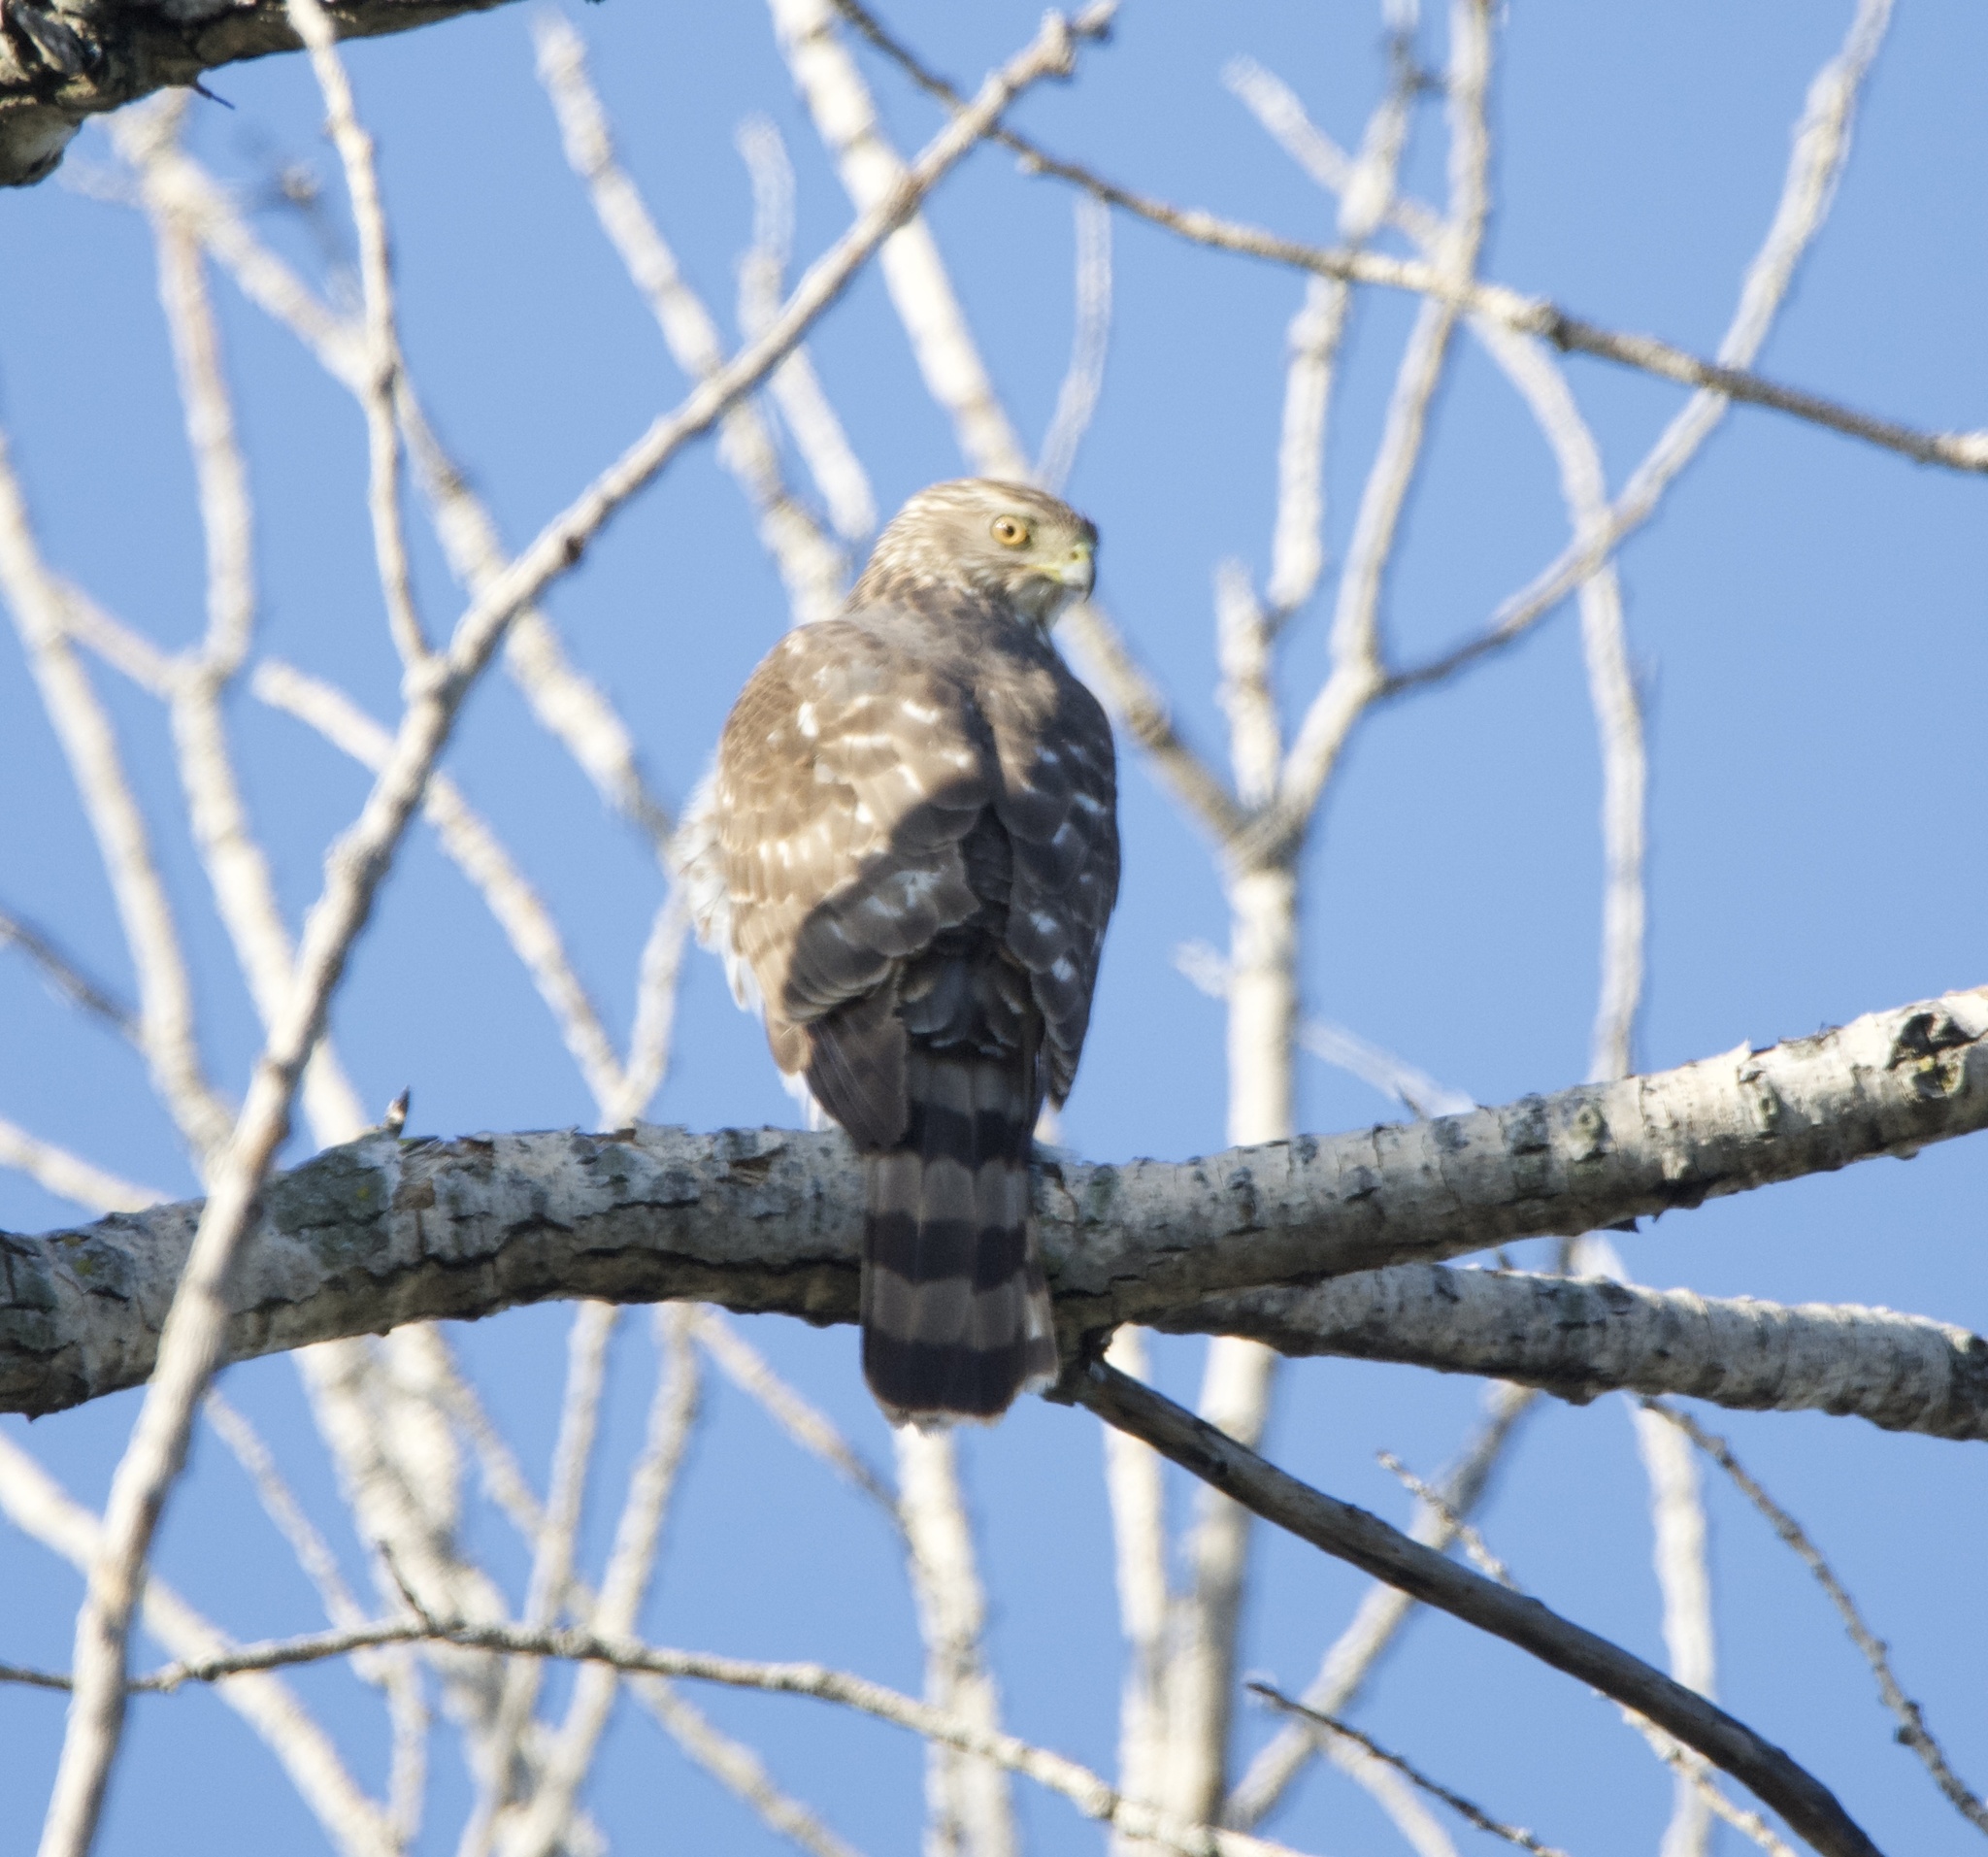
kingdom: Animalia
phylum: Chordata
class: Aves
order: Accipitriformes
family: Accipitridae
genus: Accipiter
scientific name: Accipiter cooperii
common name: Cooper's hawk
